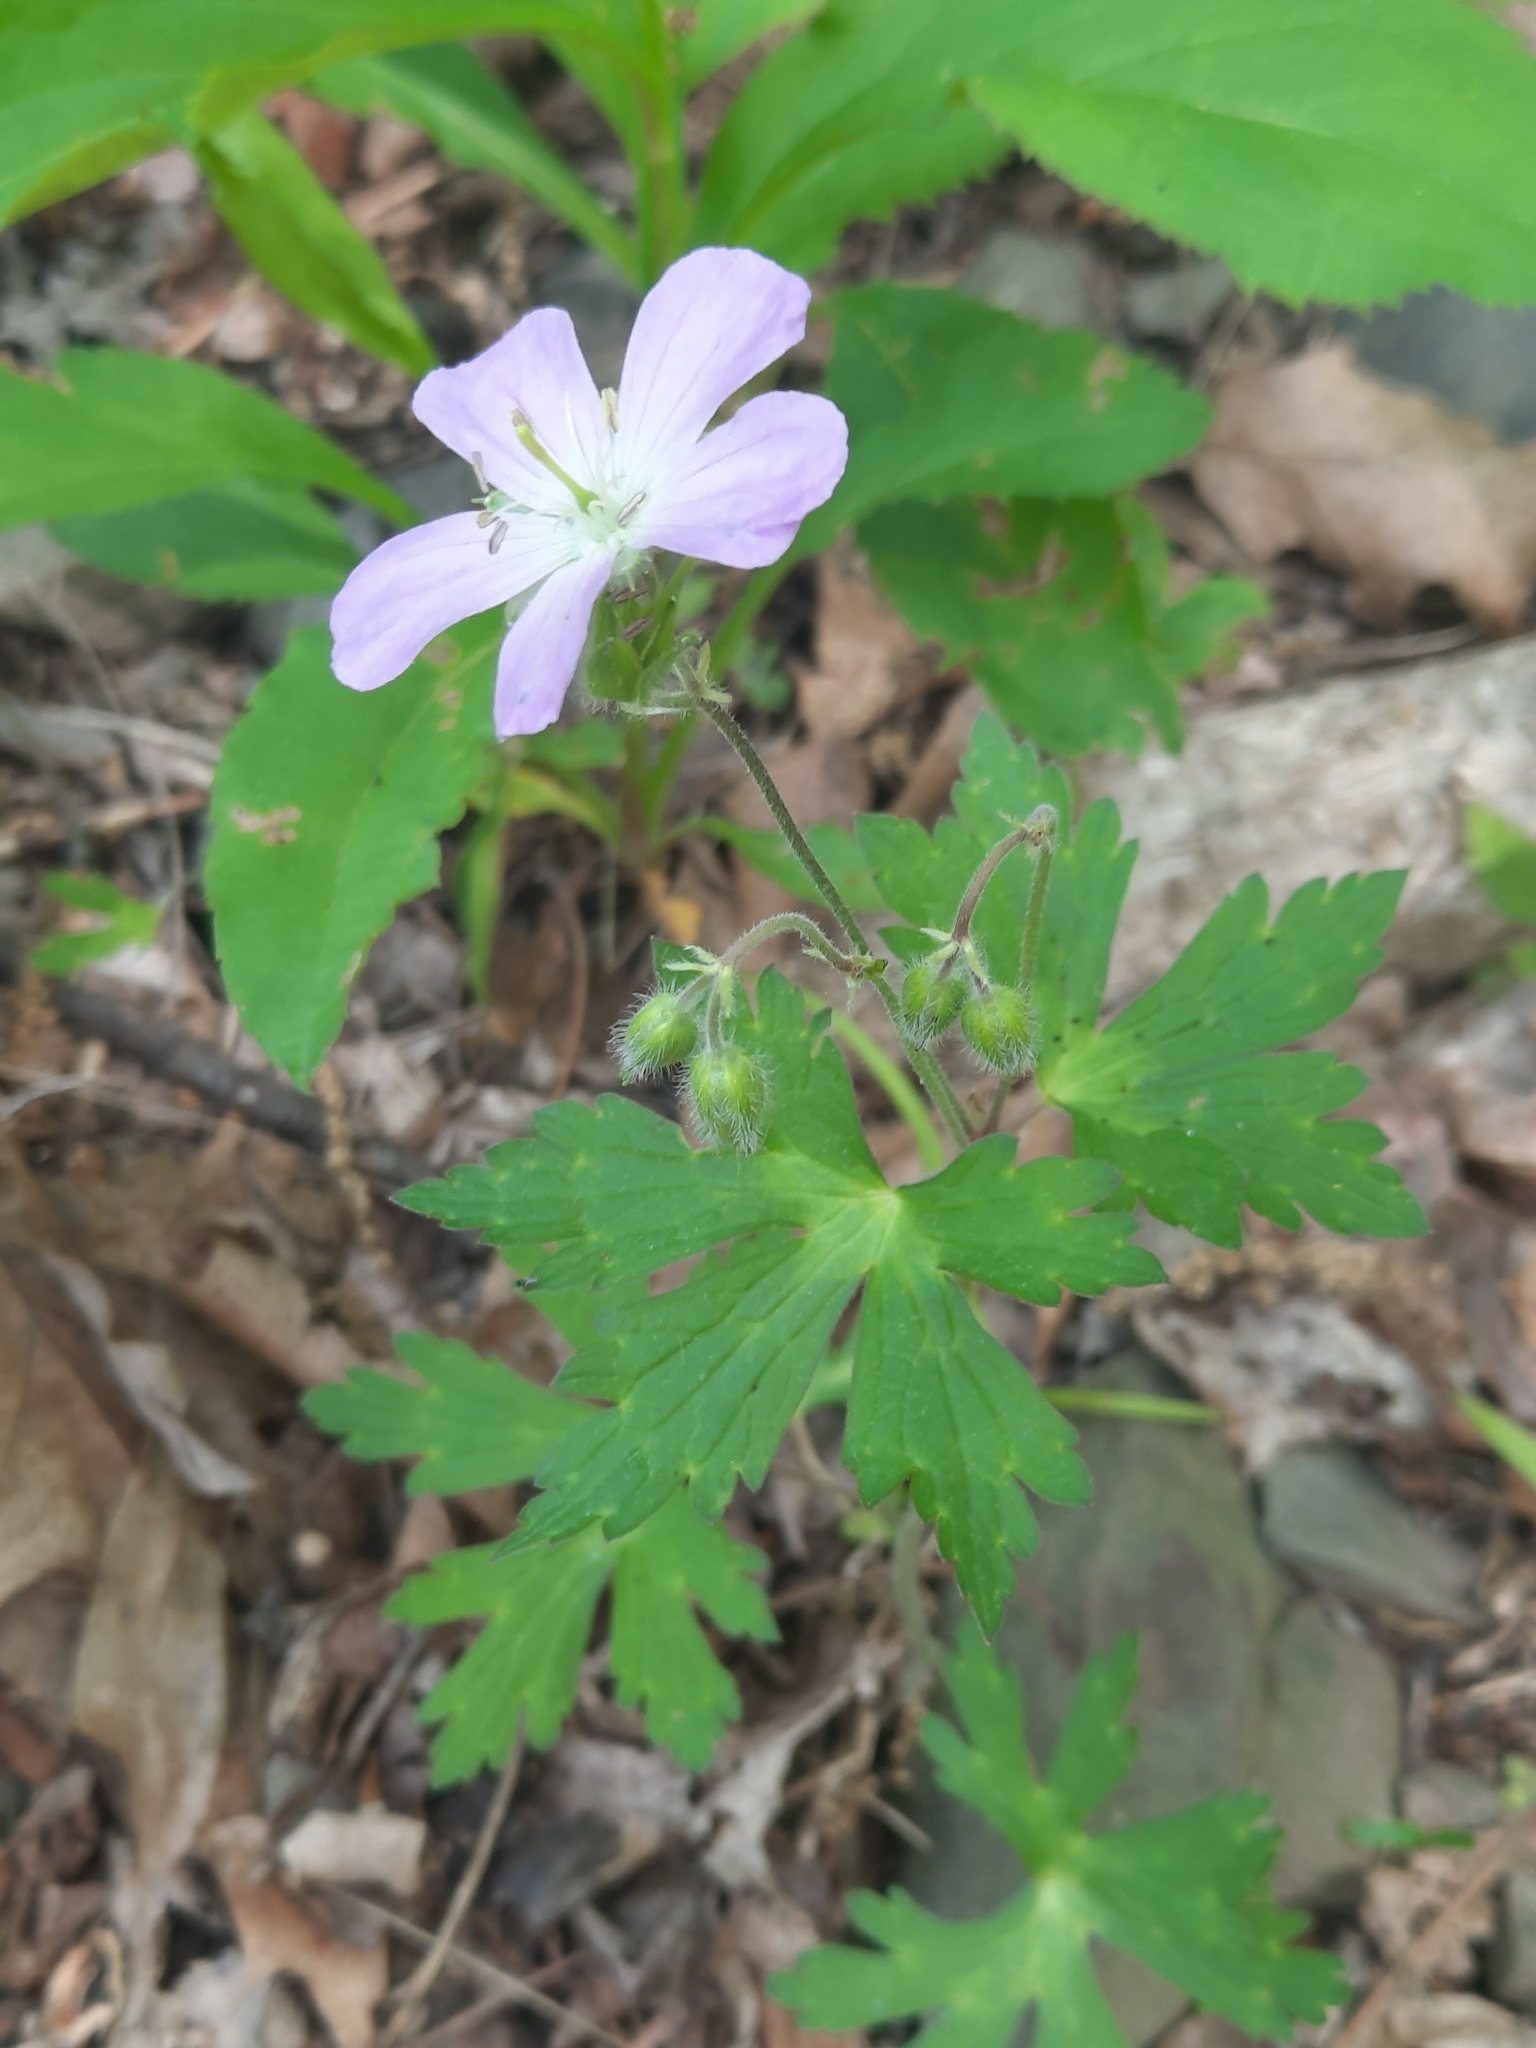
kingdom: Plantae
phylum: Tracheophyta
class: Magnoliopsida
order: Geraniales
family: Geraniaceae
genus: Geranium
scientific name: Geranium maculatum
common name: Spotted geranium
